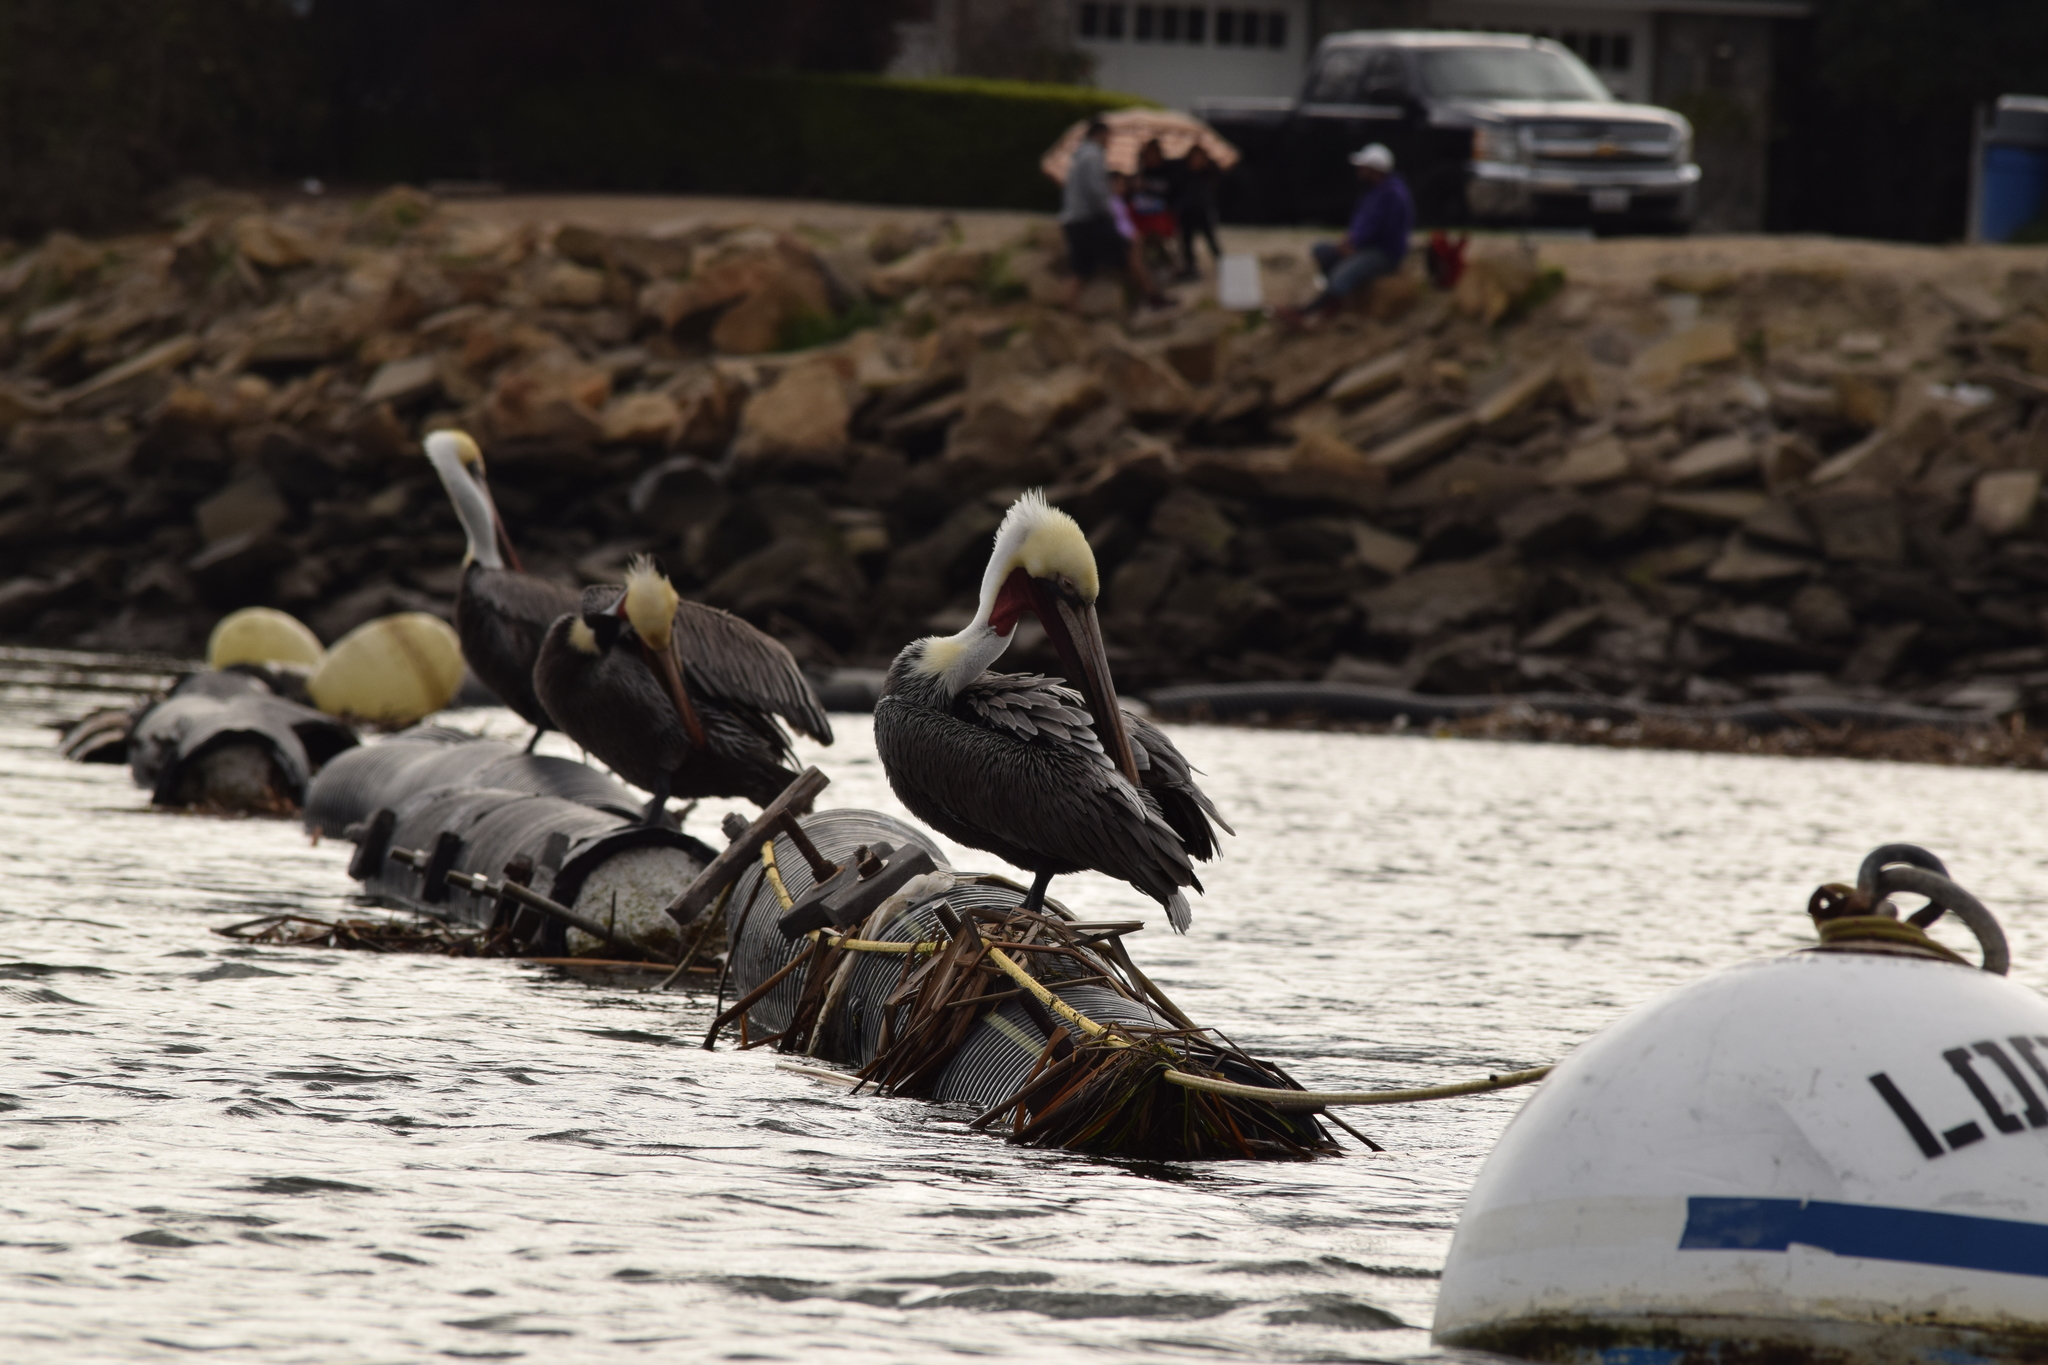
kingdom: Animalia
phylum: Chordata
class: Aves
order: Pelecaniformes
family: Pelecanidae
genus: Pelecanus
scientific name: Pelecanus occidentalis
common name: Brown pelican
